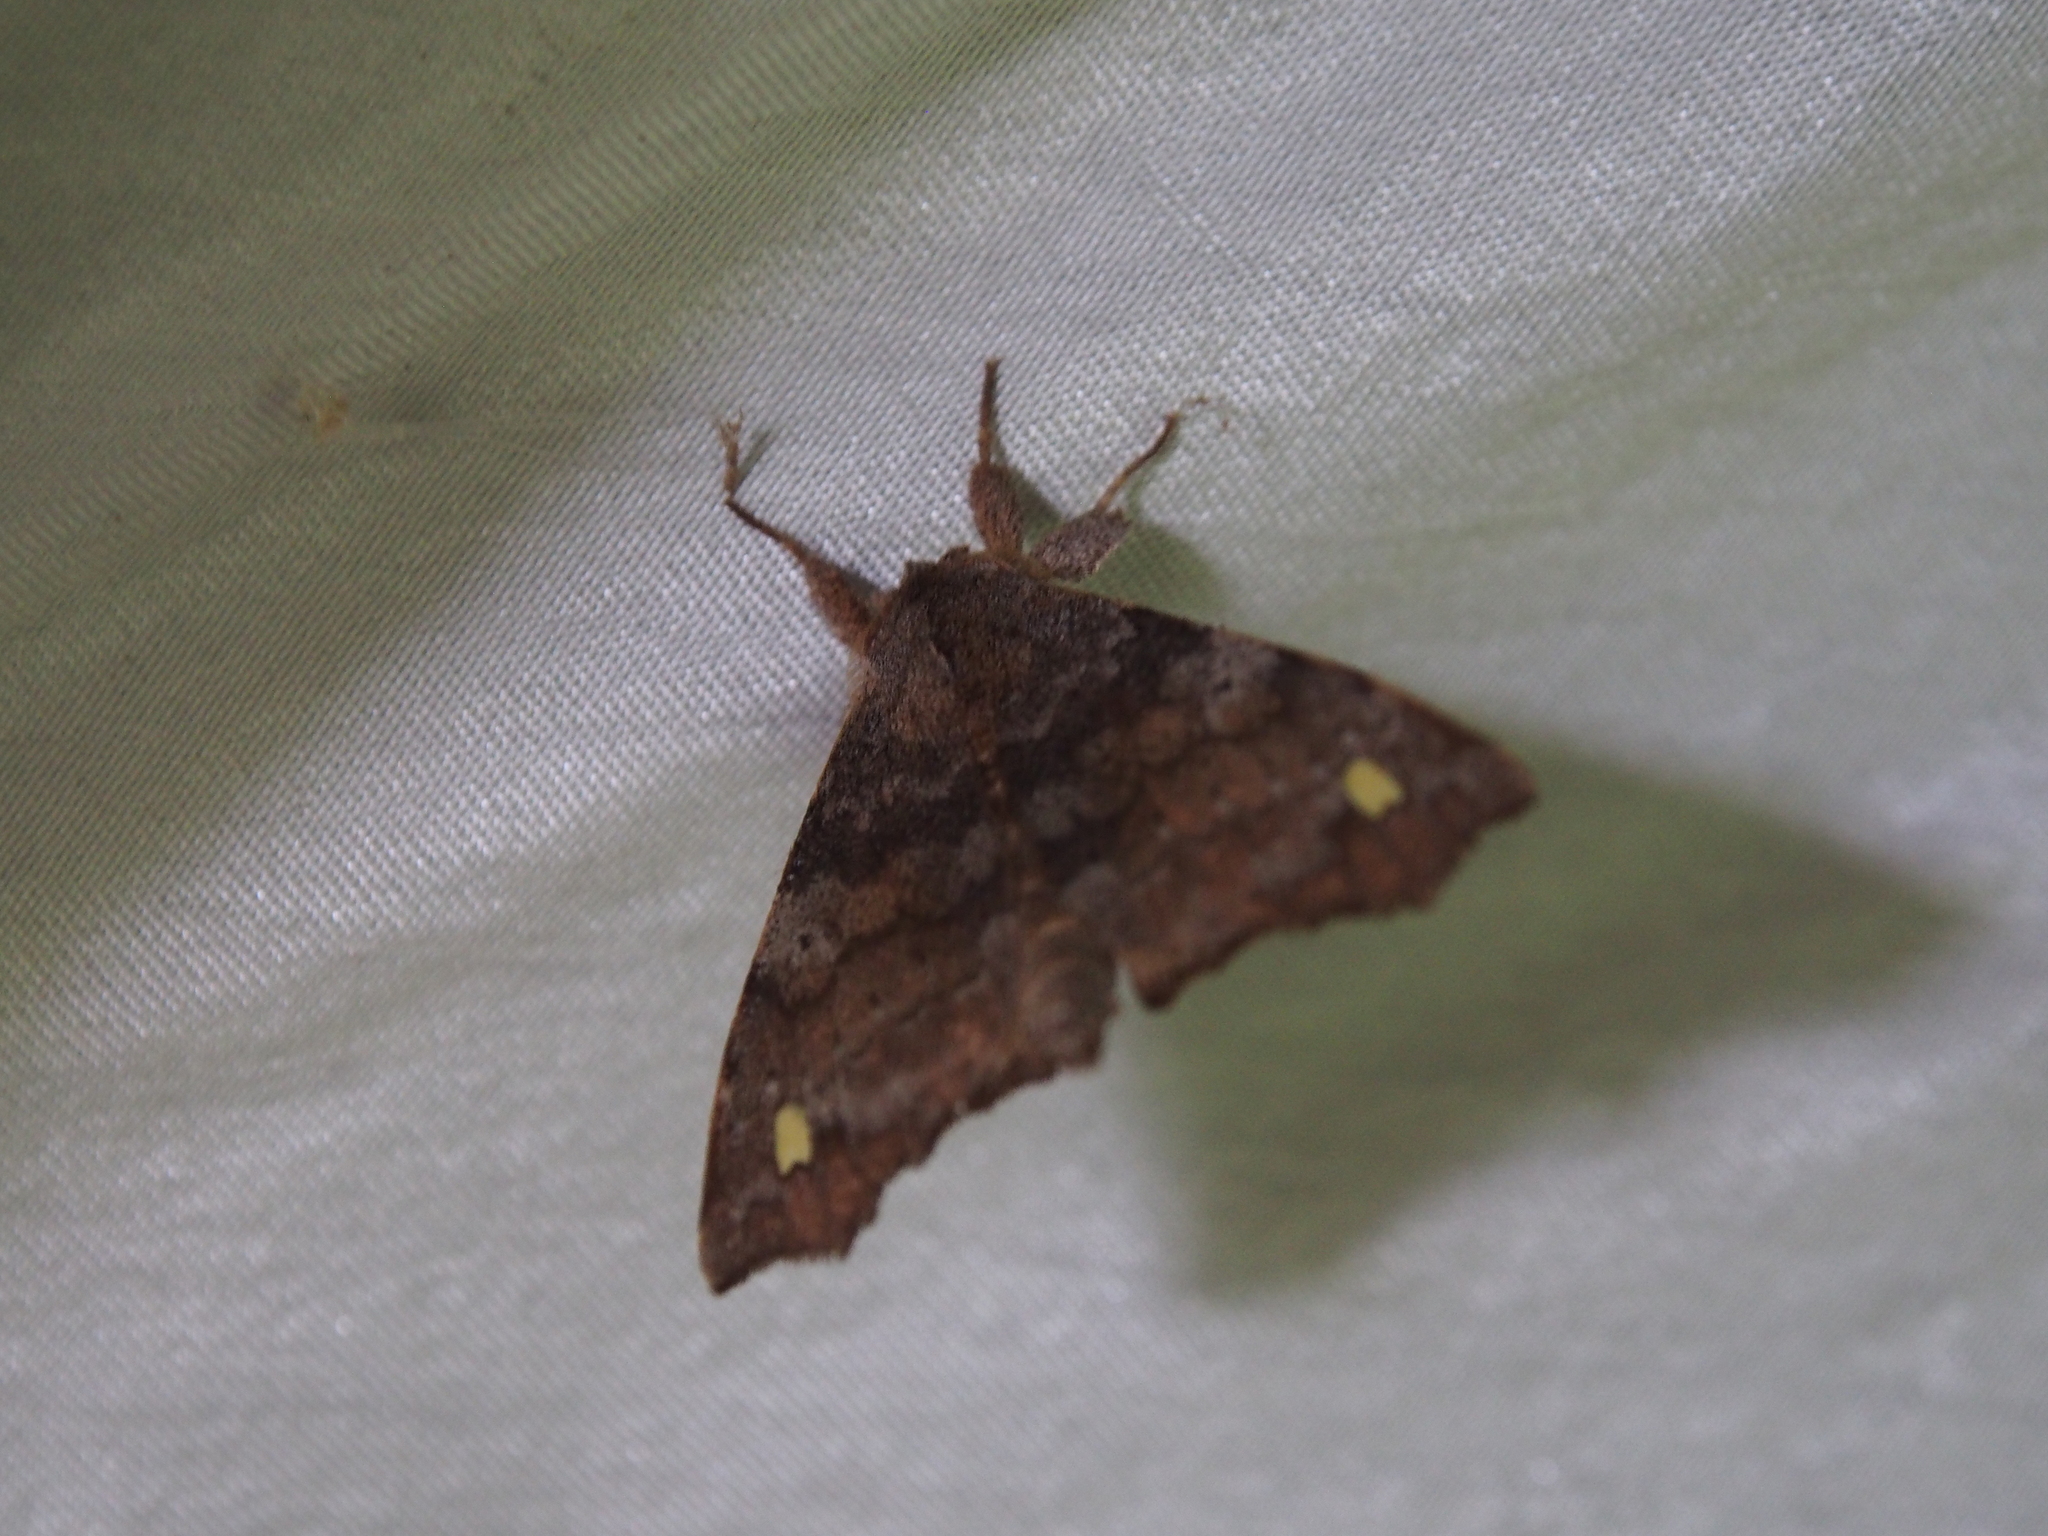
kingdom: Animalia
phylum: Arthropoda
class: Insecta
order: Lepidoptera
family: Apatelodidae
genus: Olceclostera
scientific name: Olceclostera indentata
